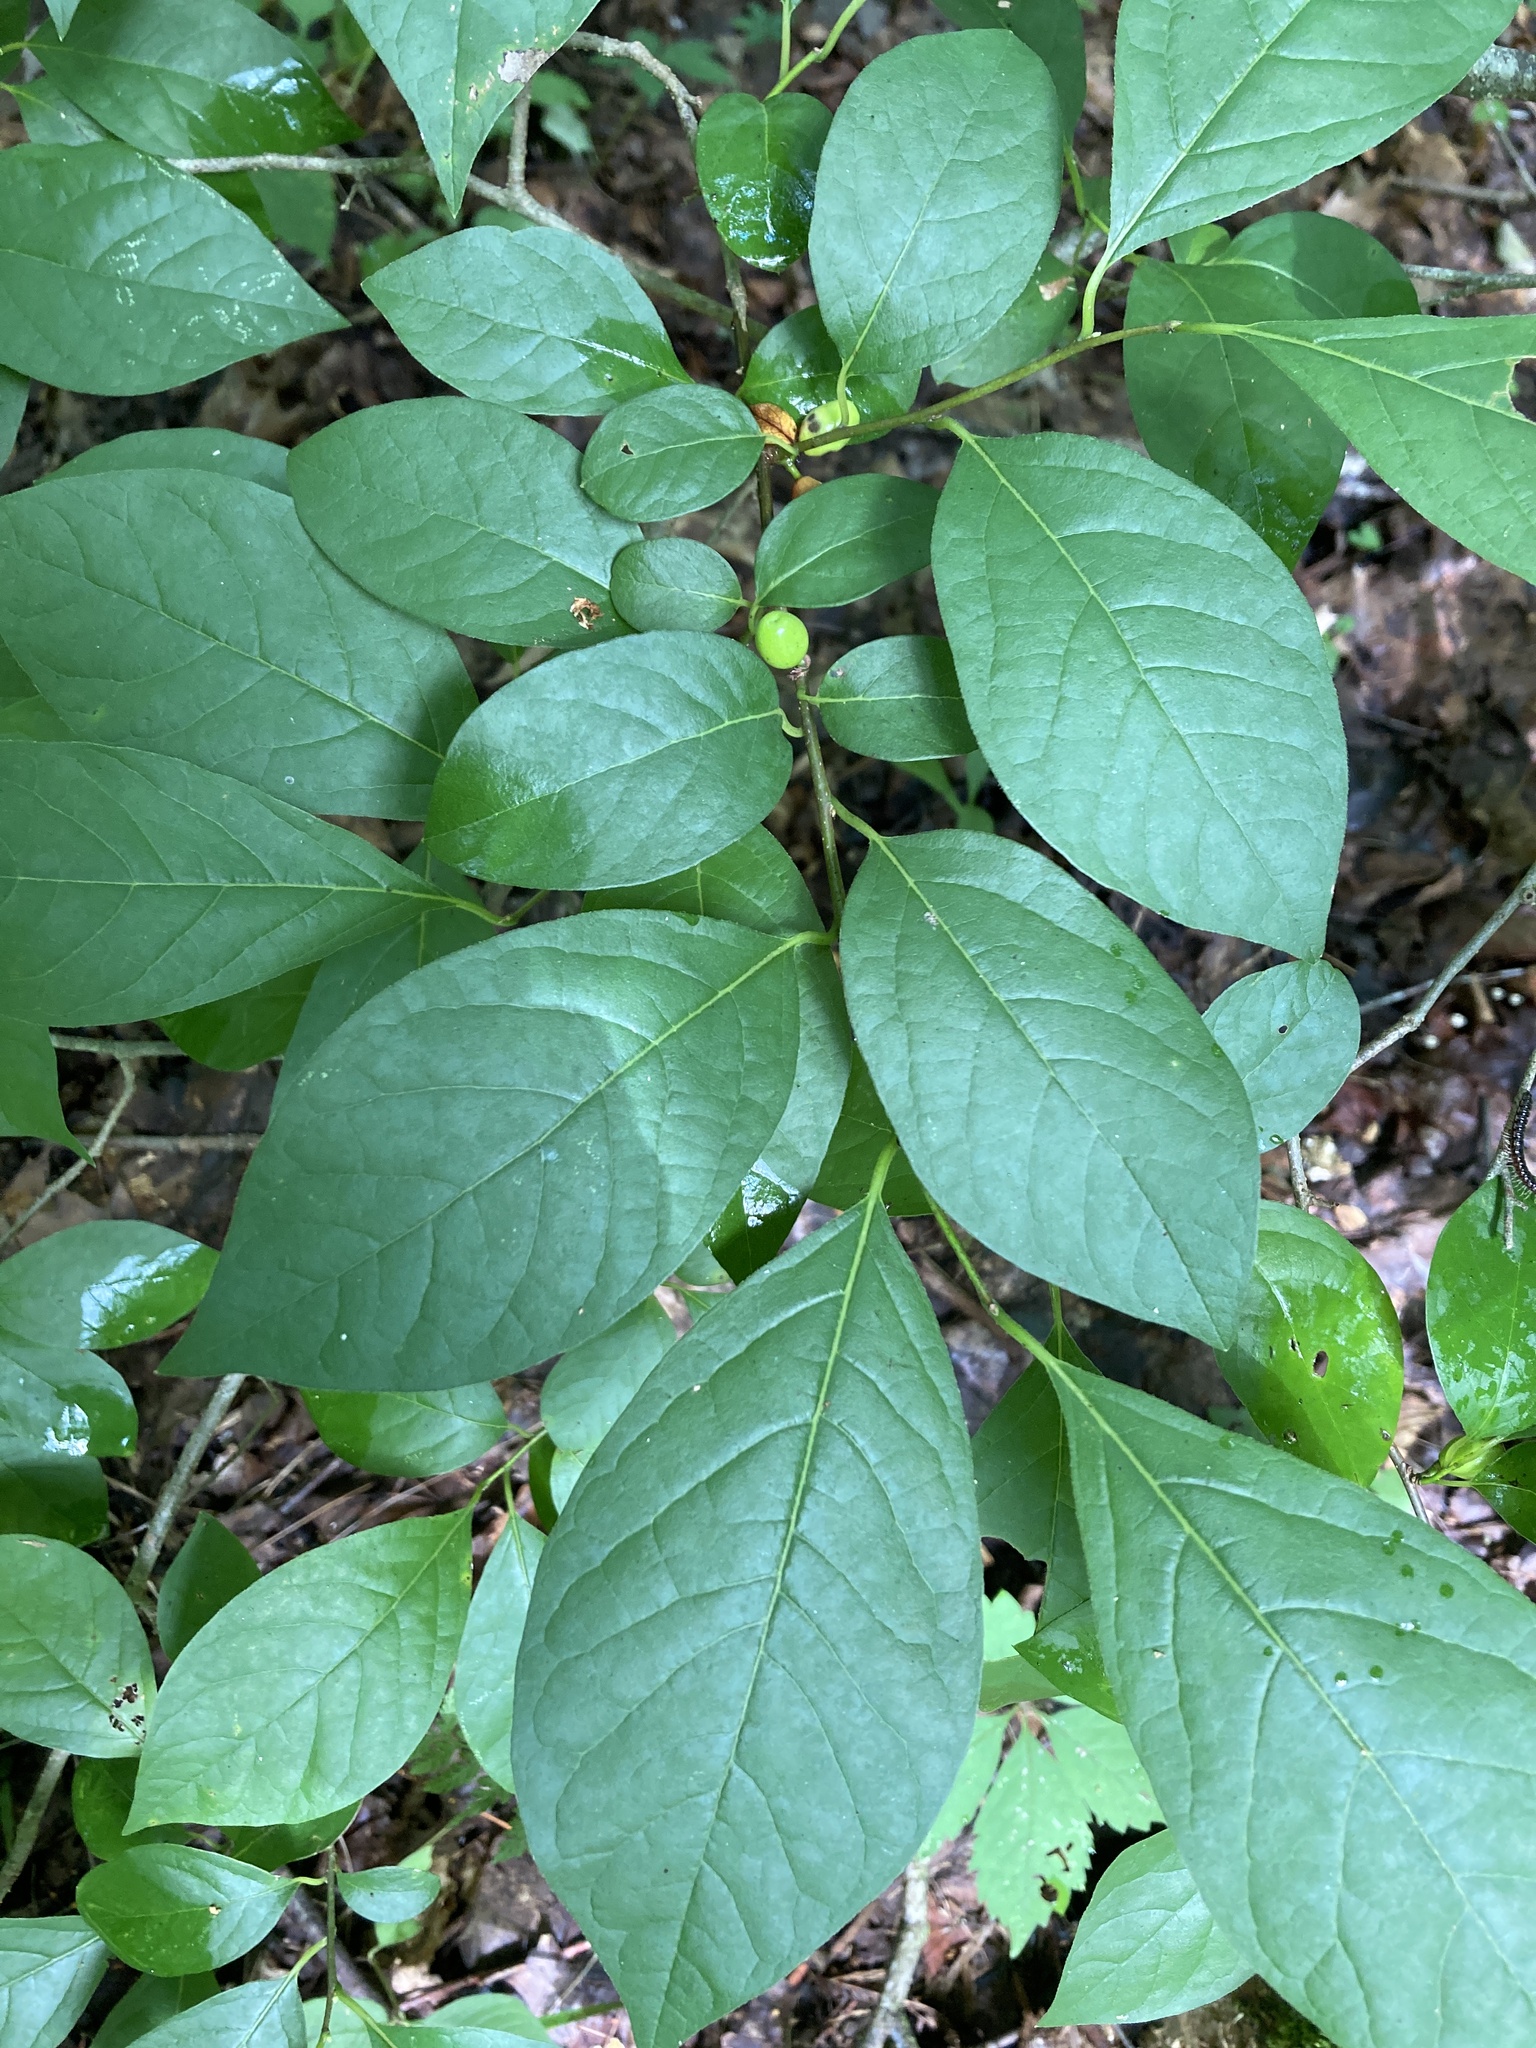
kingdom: Plantae
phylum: Tracheophyta
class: Magnoliopsida
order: Laurales
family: Lauraceae
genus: Lindera
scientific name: Lindera benzoin
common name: Spicebush
